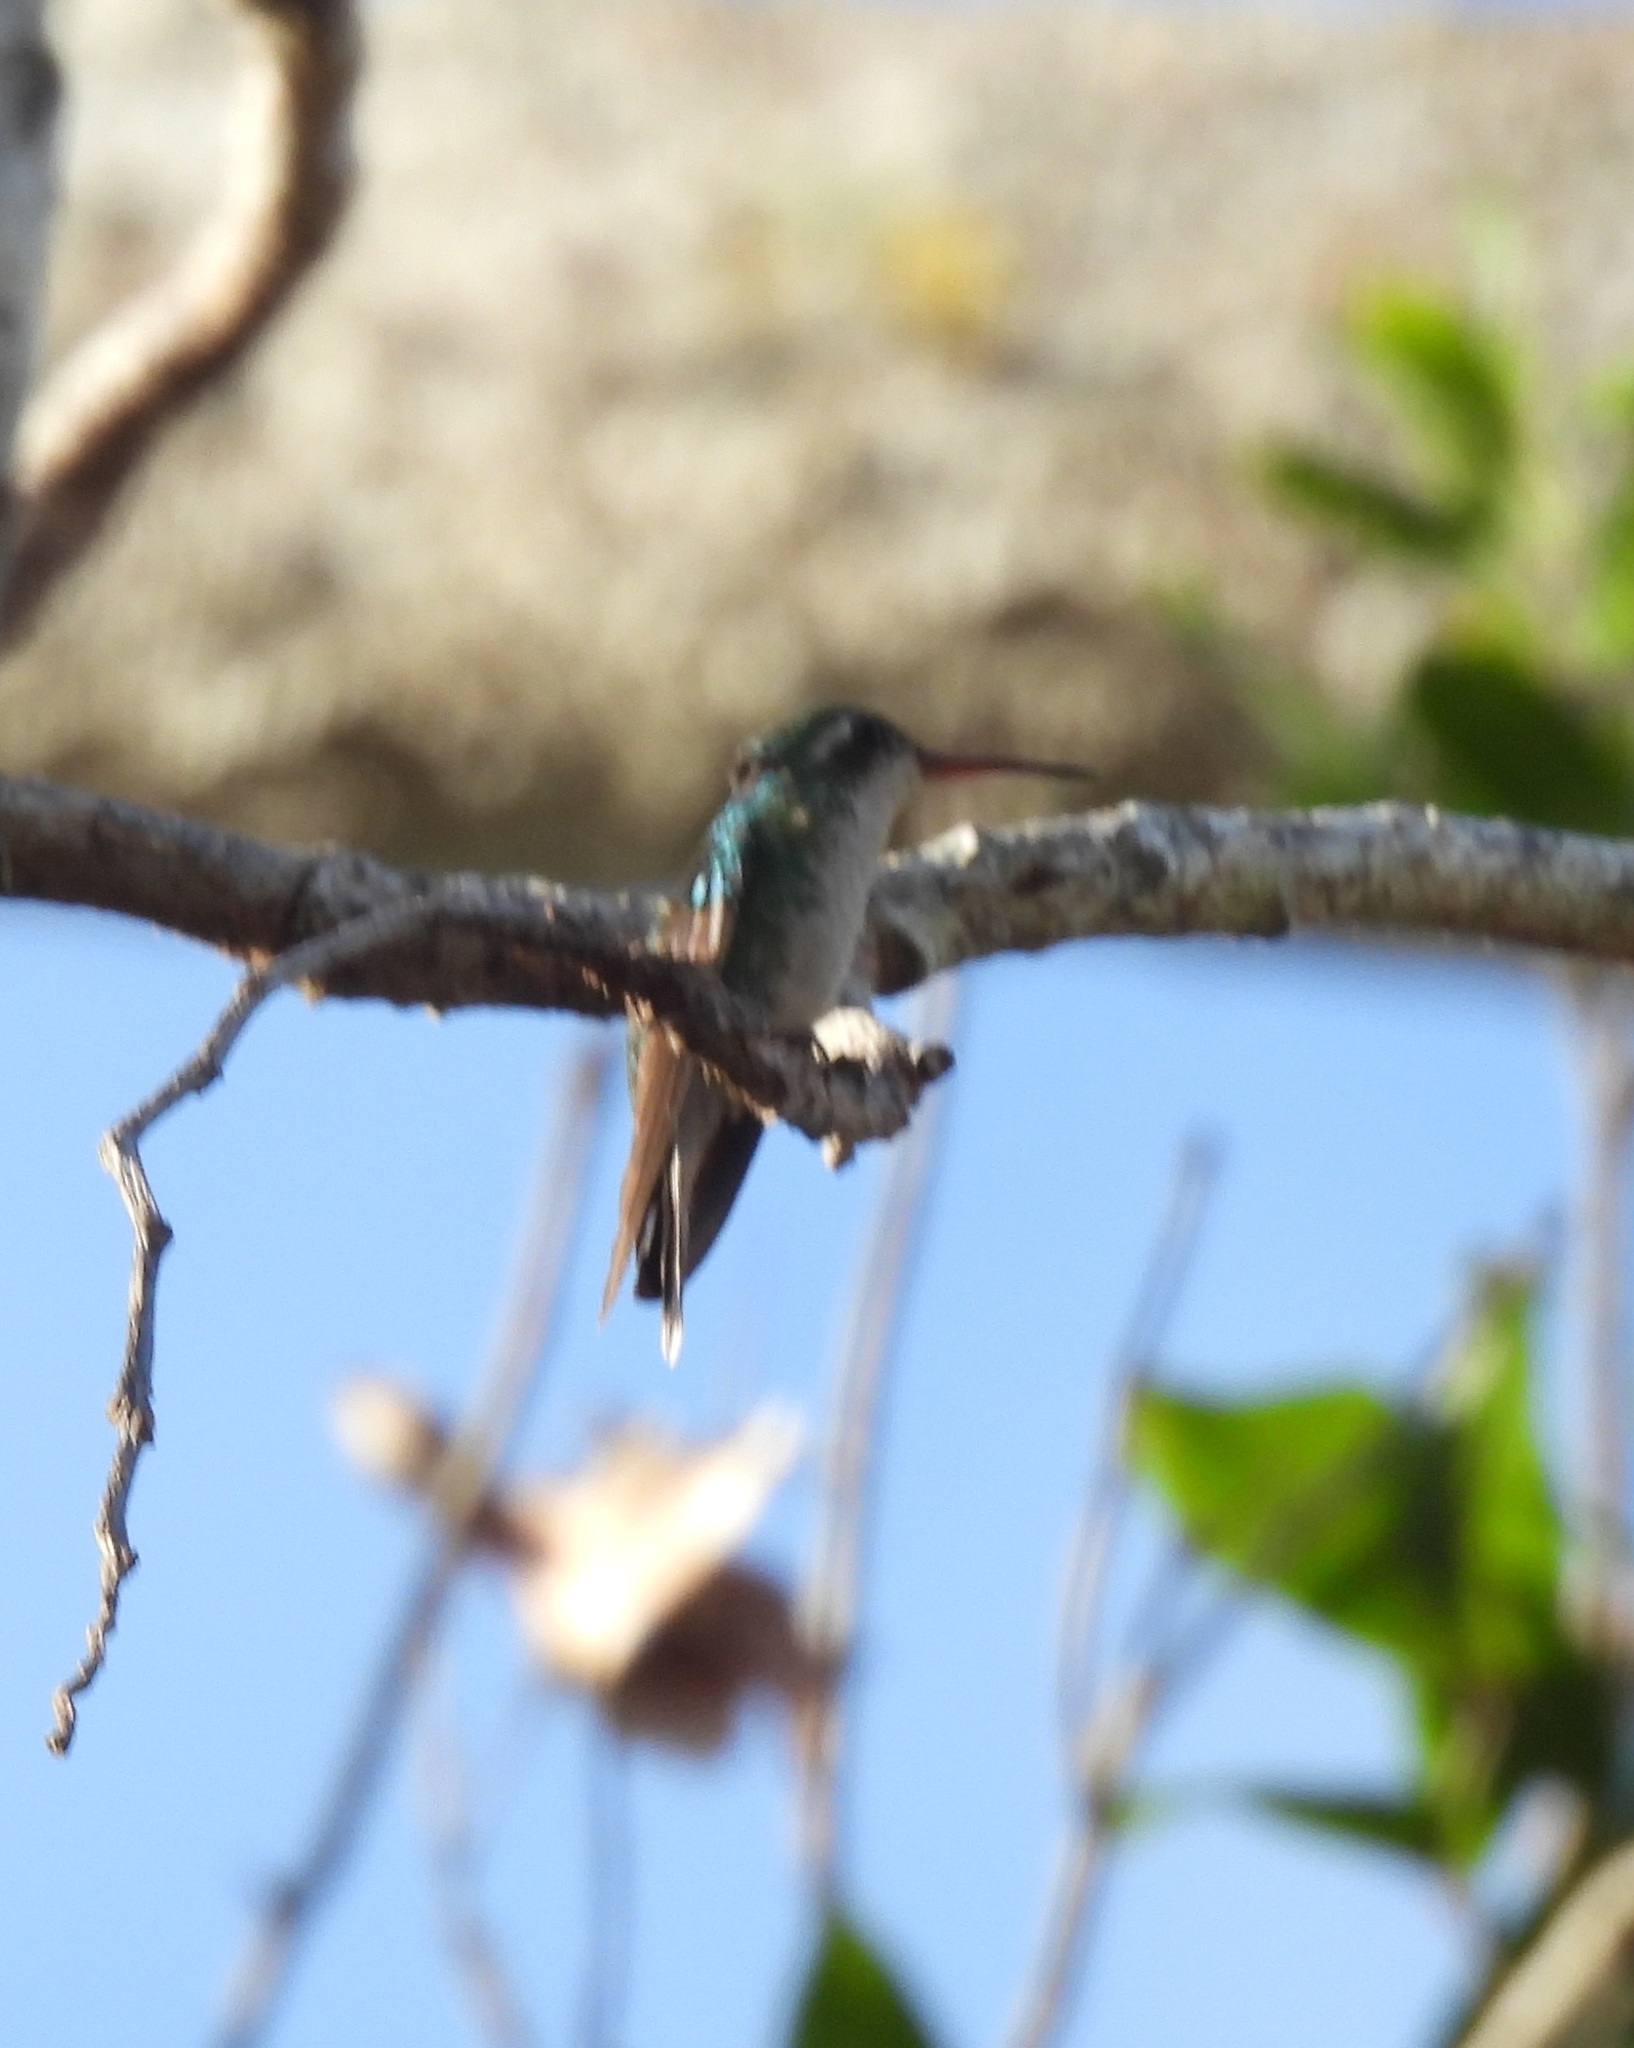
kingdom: Animalia
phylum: Chordata
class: Aves
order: Apodiformes
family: Trochilidae
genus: Cynanthus
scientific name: Cynanthus forficatus
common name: Cozumel emerald
